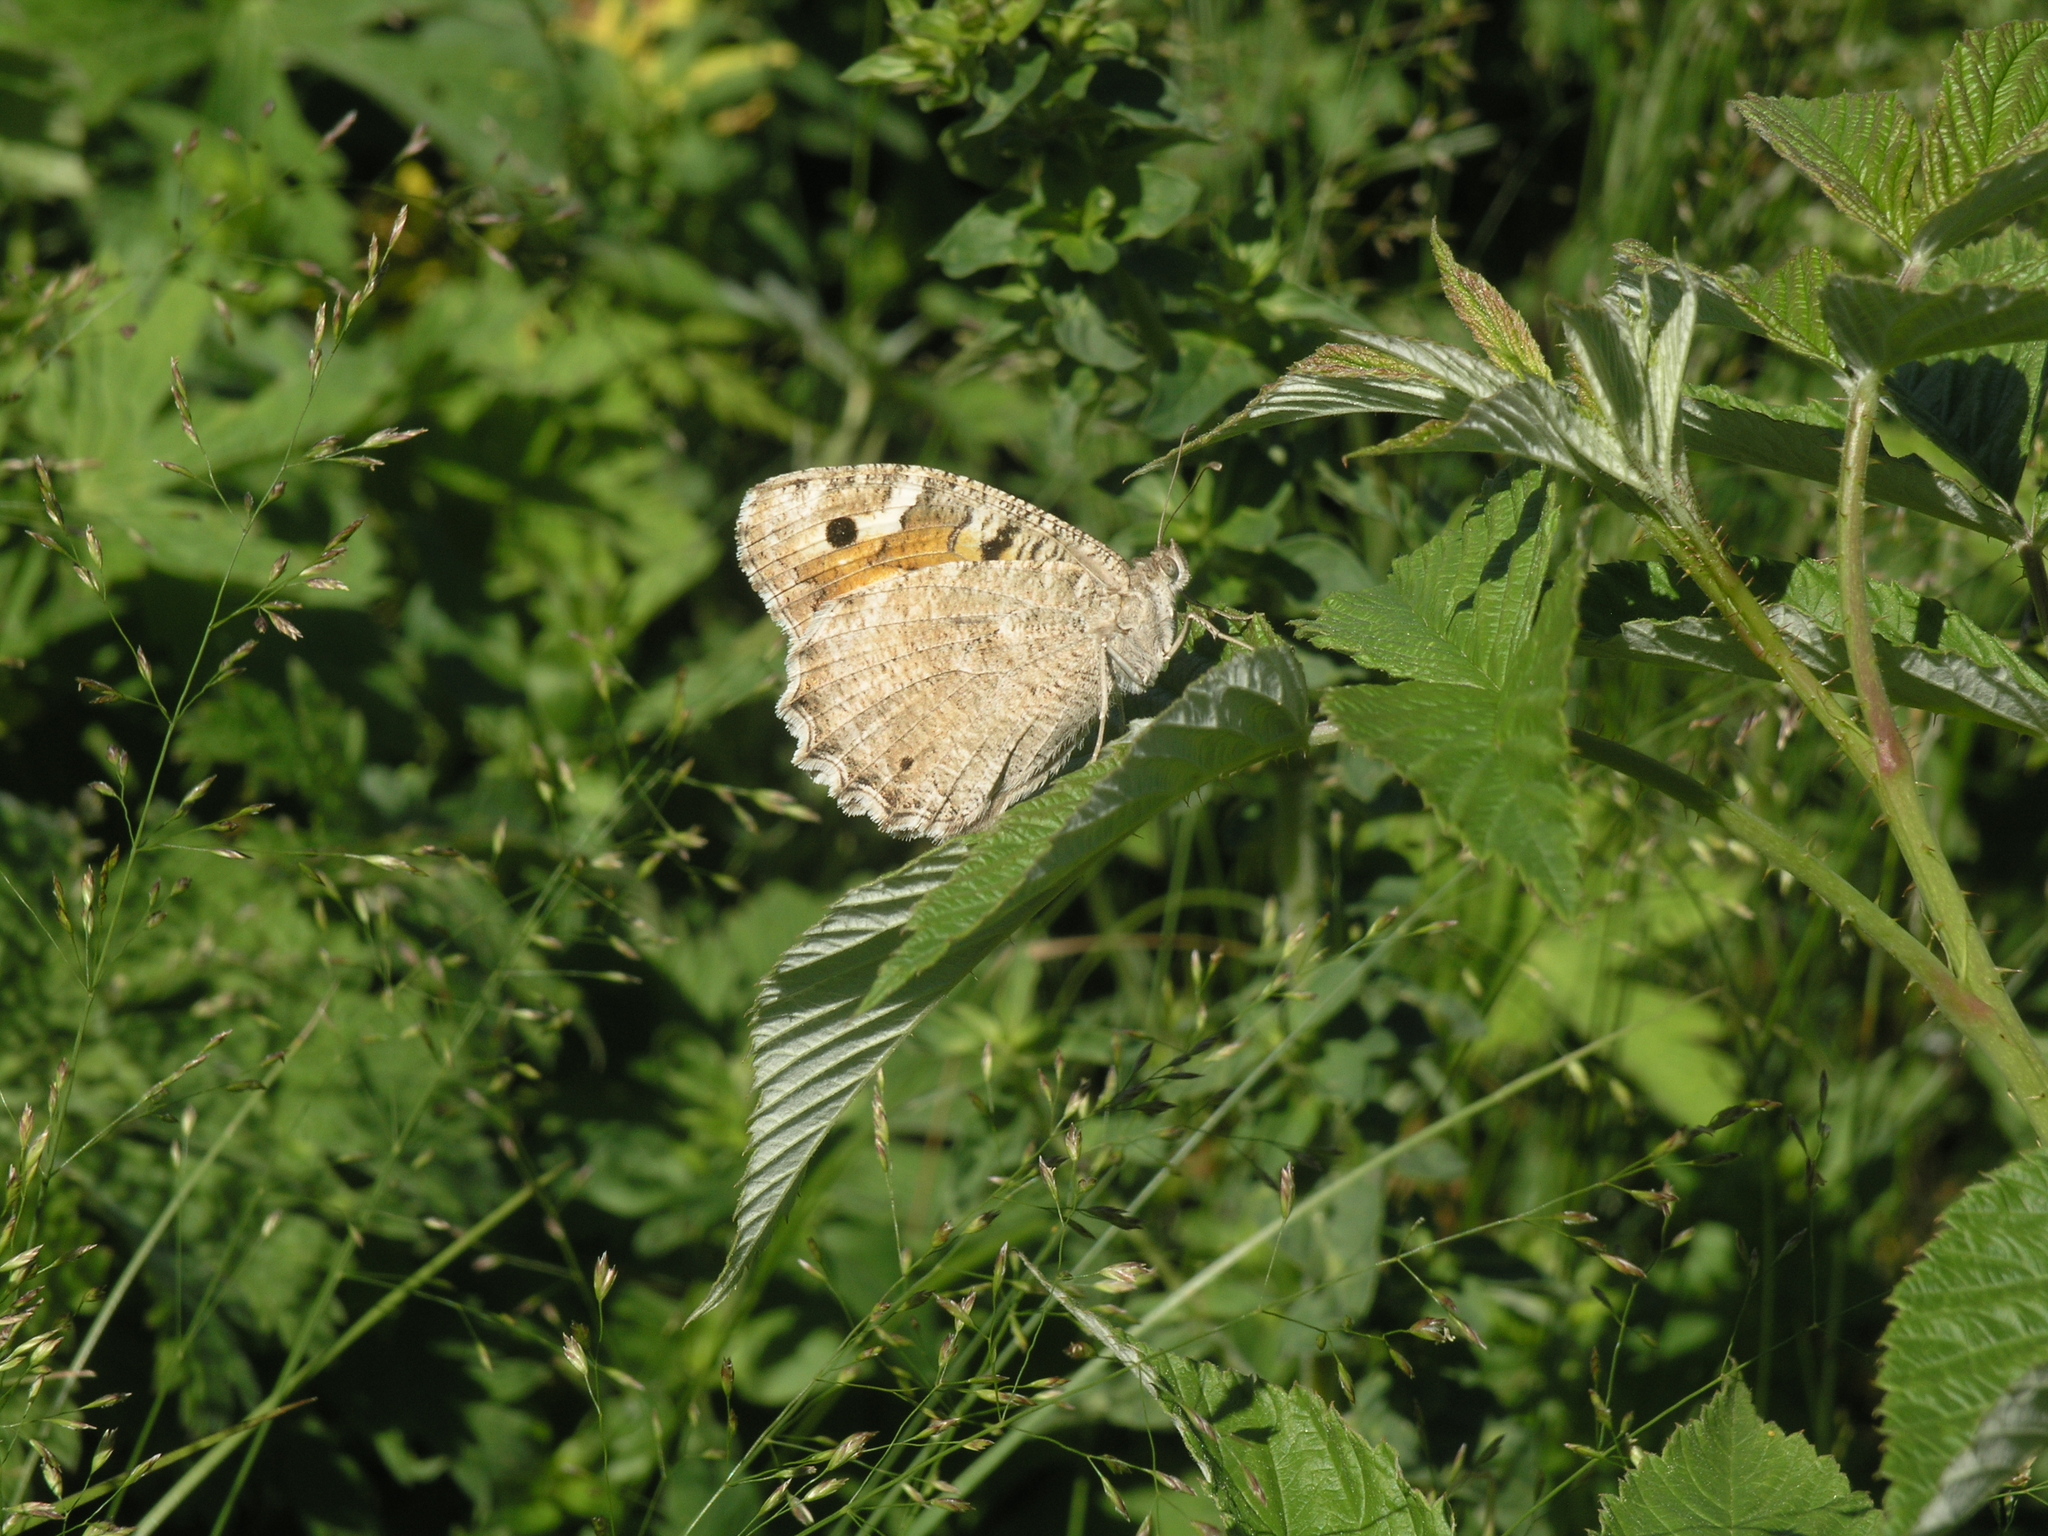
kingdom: Animalia
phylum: Arthropoda
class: Insecta
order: Lepidoptera
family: Nymphalidae
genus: Satyrus
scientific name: Satyrus Chazara enervata
